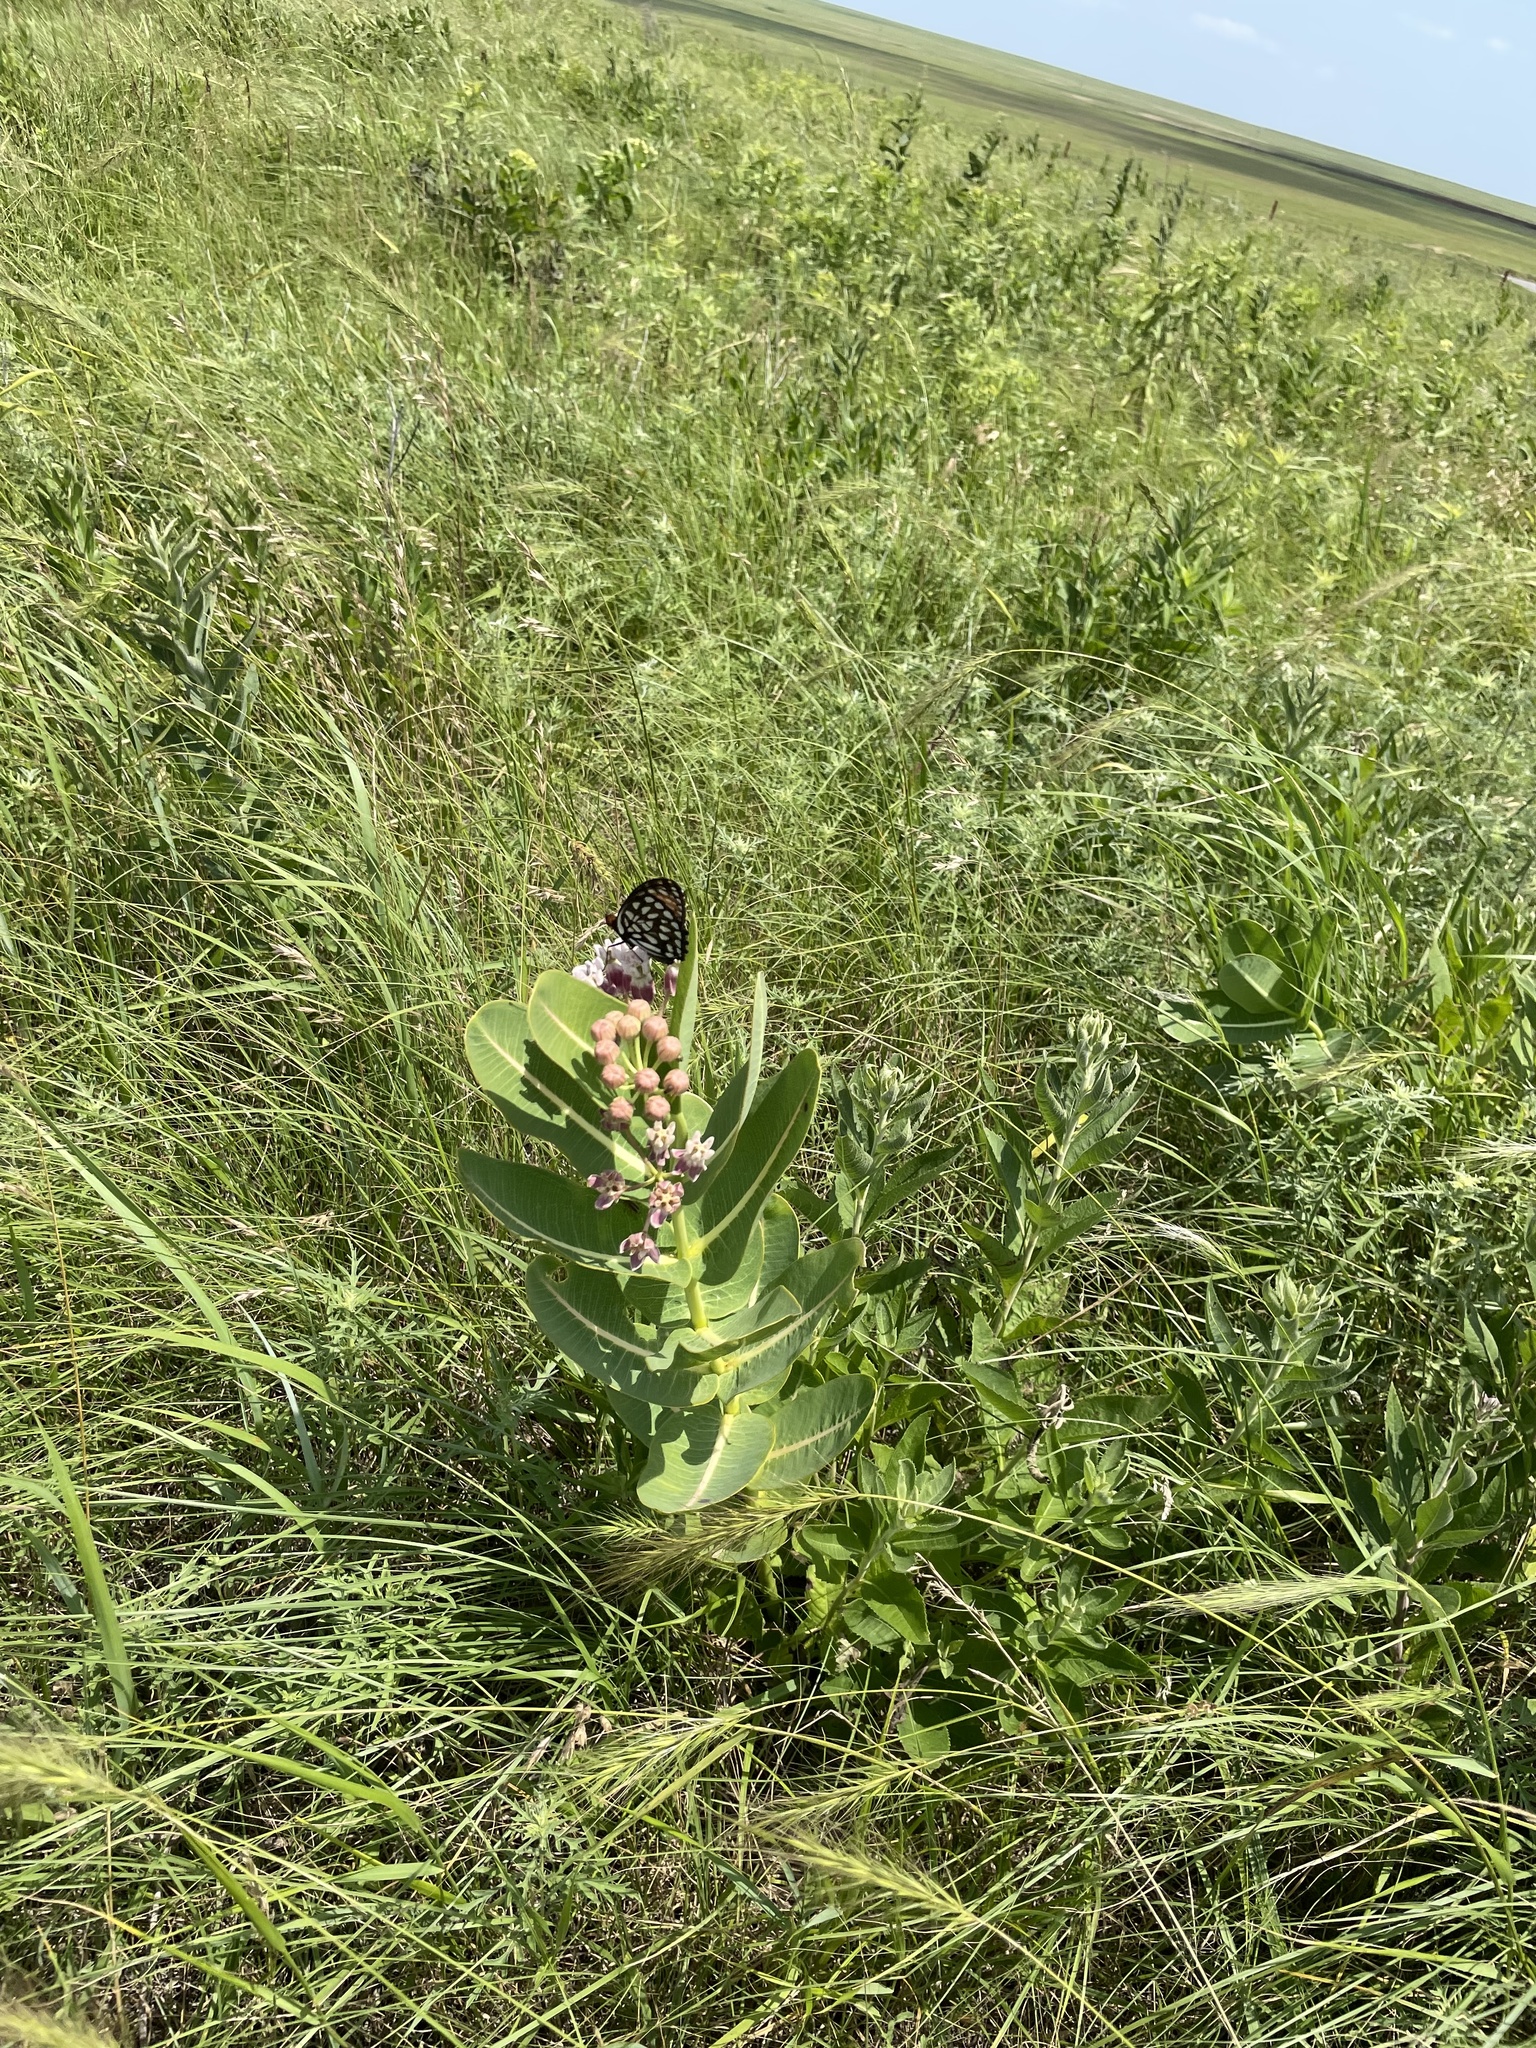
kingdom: Animalia
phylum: Arthropoda
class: Insecta
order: Lepidoptera
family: Nymphalidae
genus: Speyeria
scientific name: Speyeria idalia
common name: Regal fritillary
